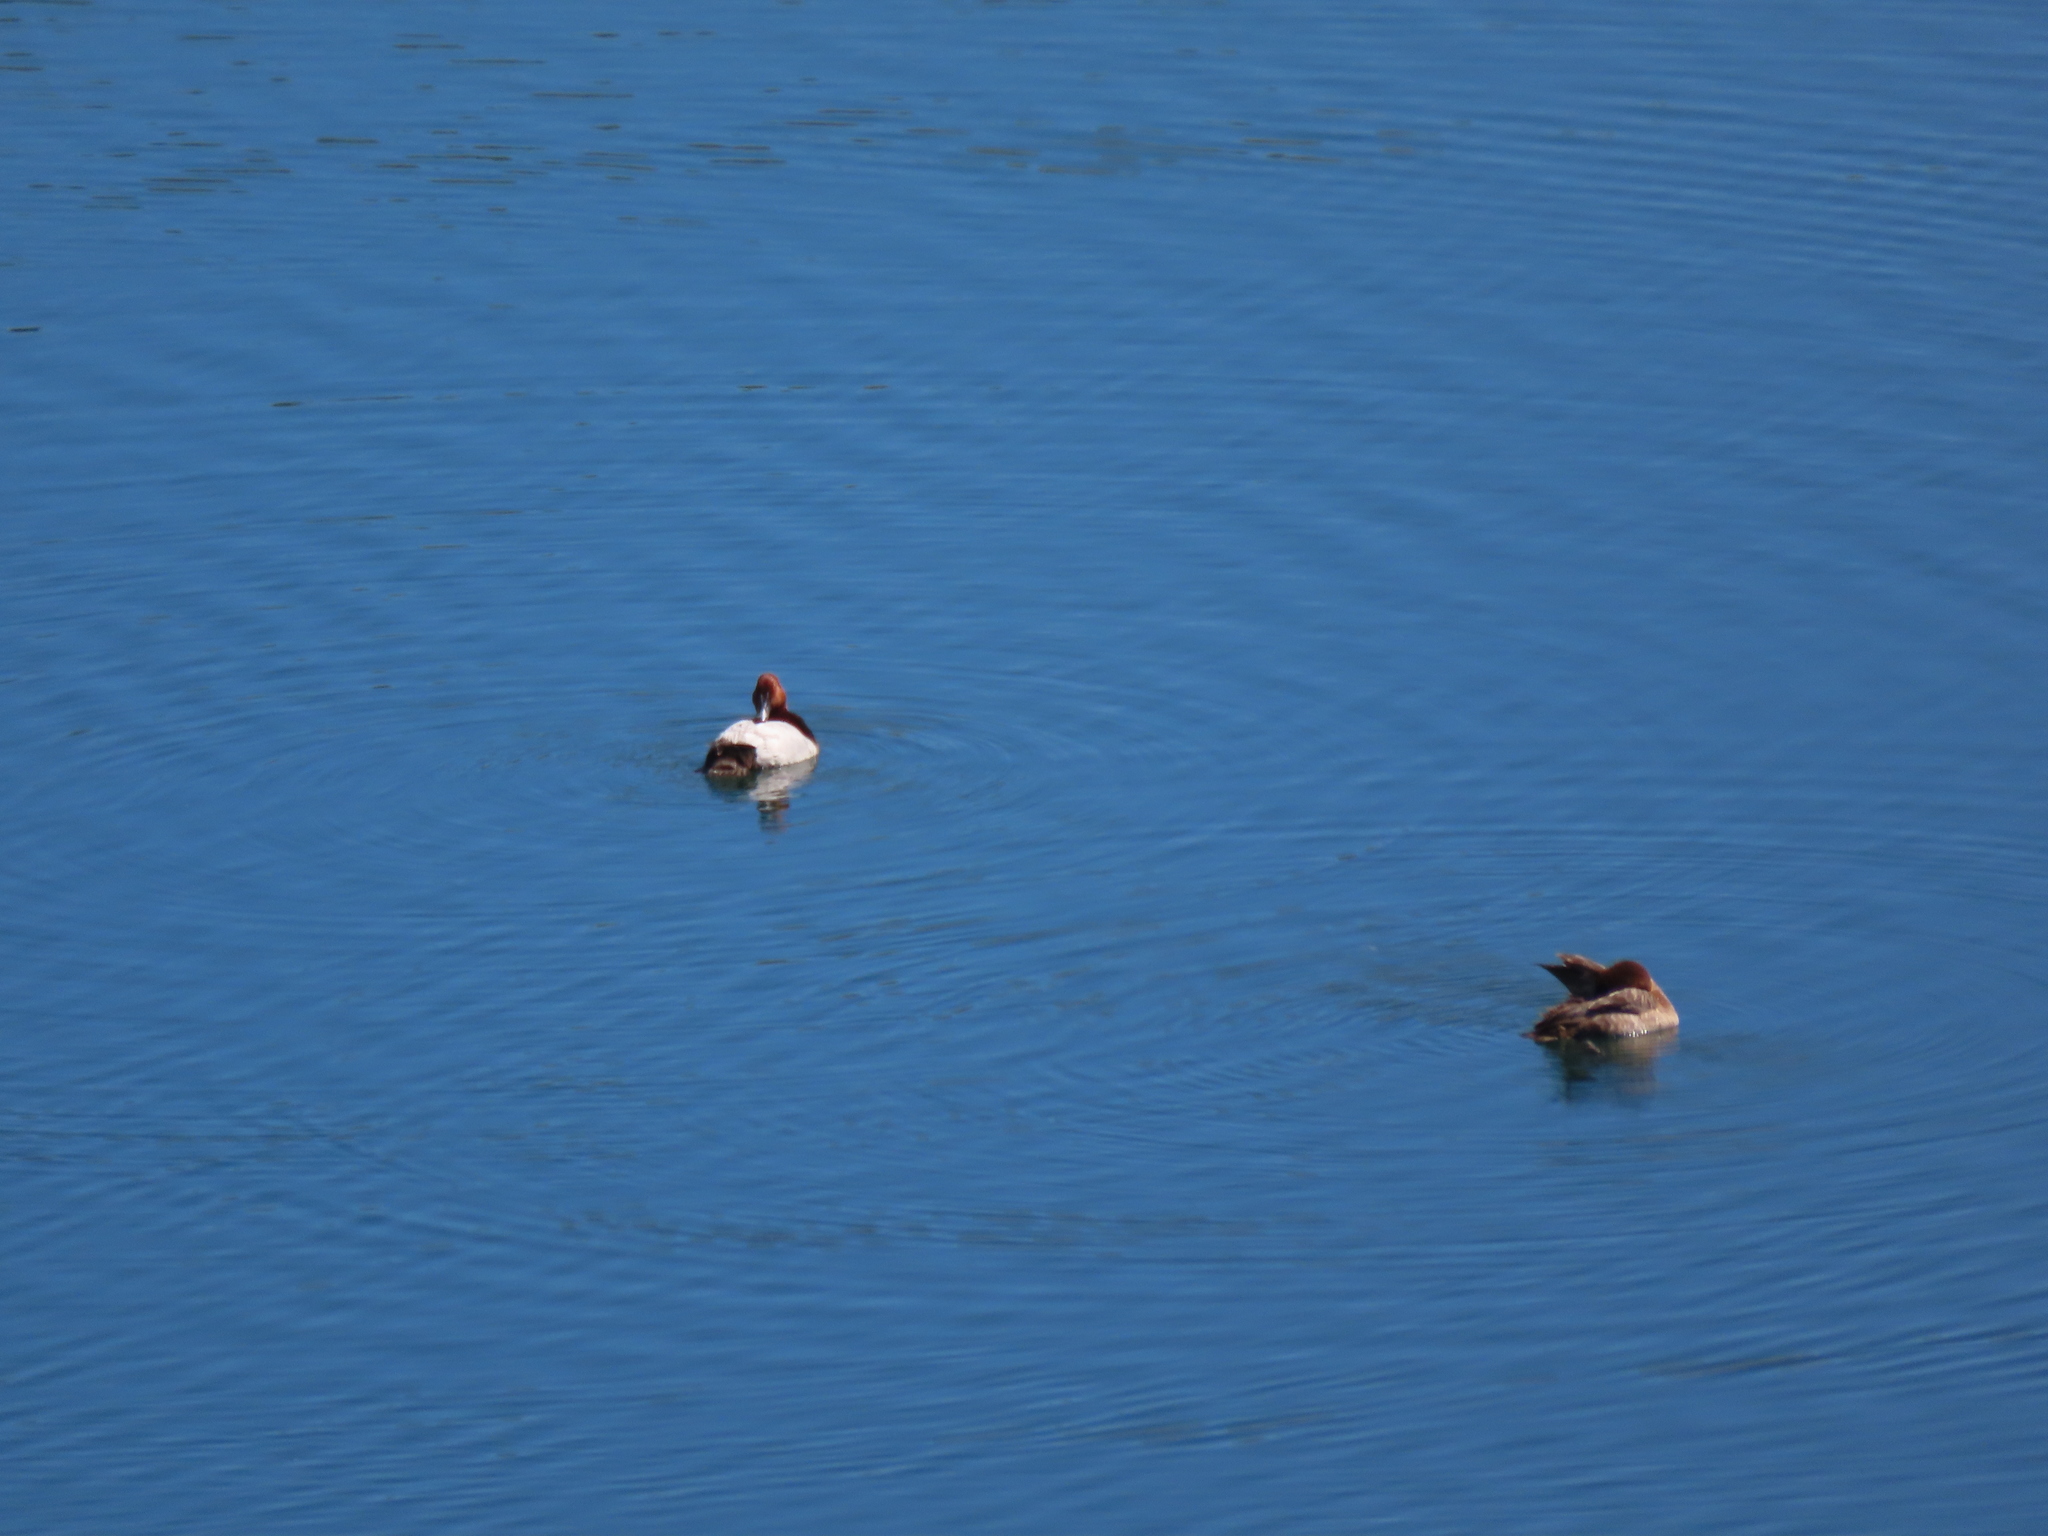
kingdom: Animalia
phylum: Chordata
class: Aves
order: Anseriformes
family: Anatidae
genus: Aythya
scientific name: Aythya ferina
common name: Common pochard
